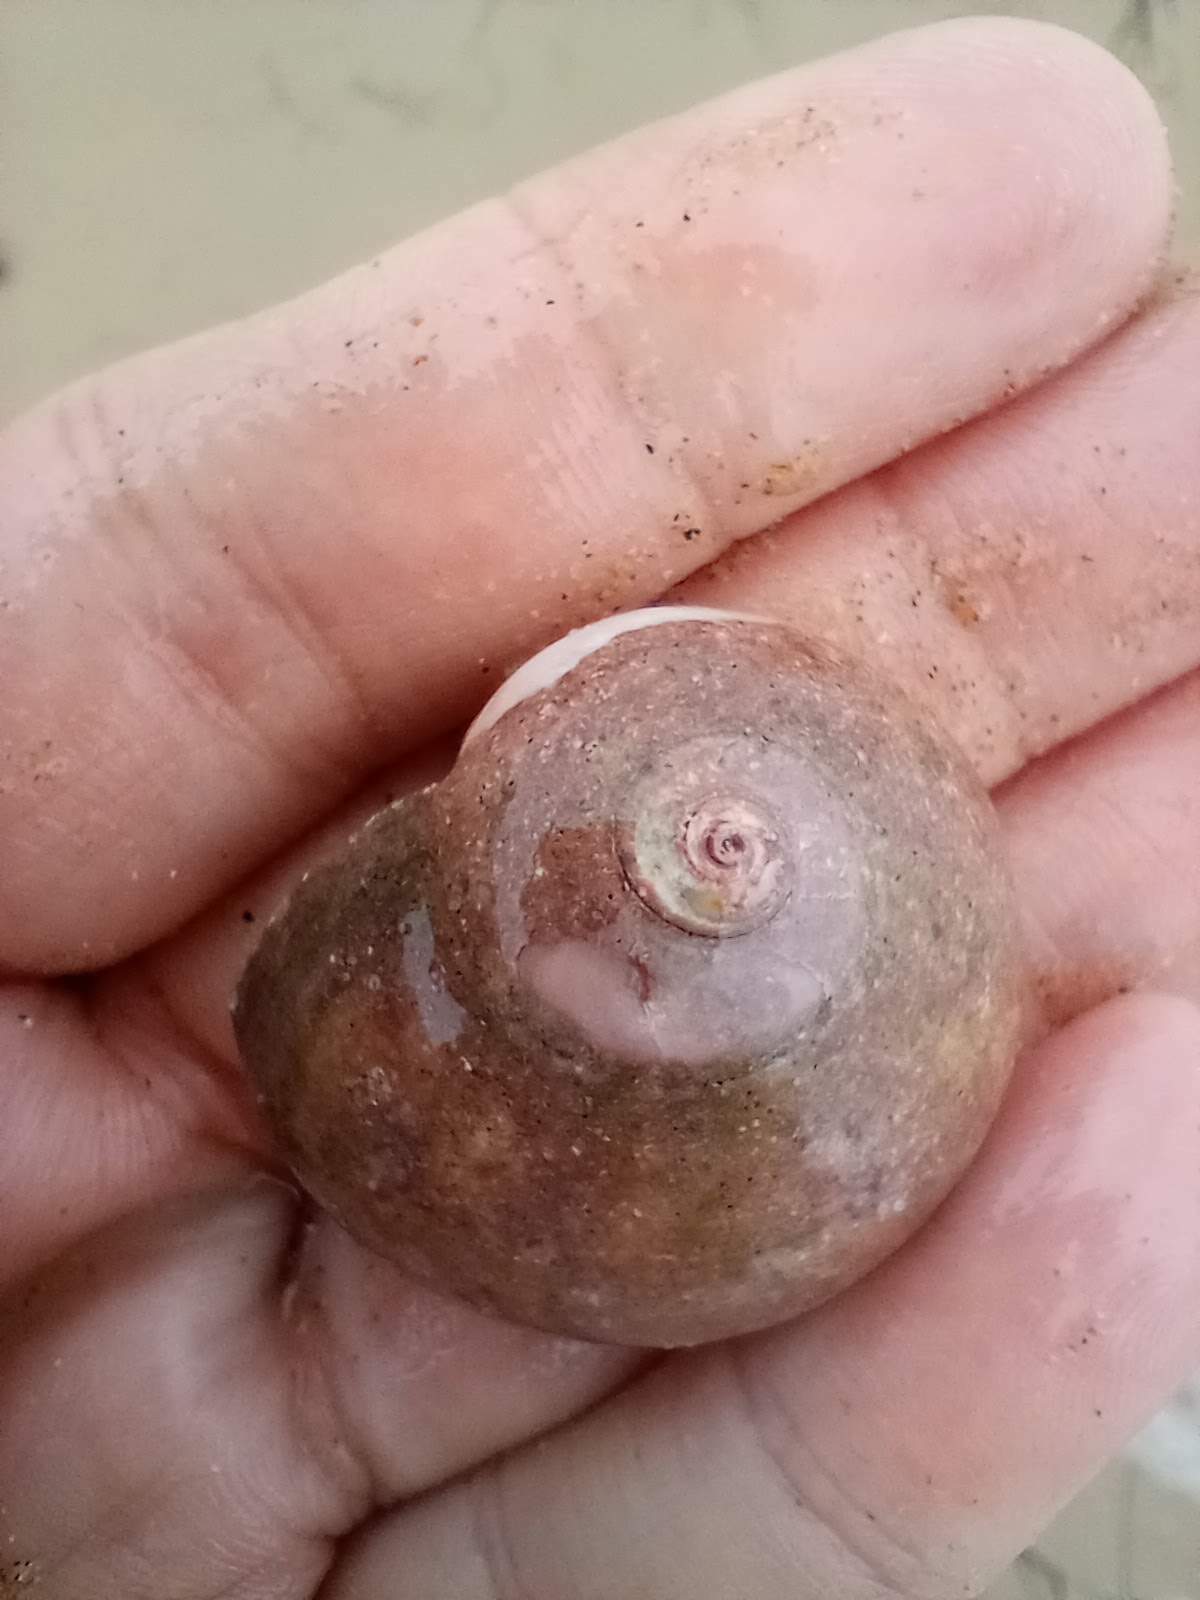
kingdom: Animalia
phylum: Mollusca
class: Gastropoda
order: Trochida
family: Tegulidae
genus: Norrisia
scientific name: Norrisia norrisii
